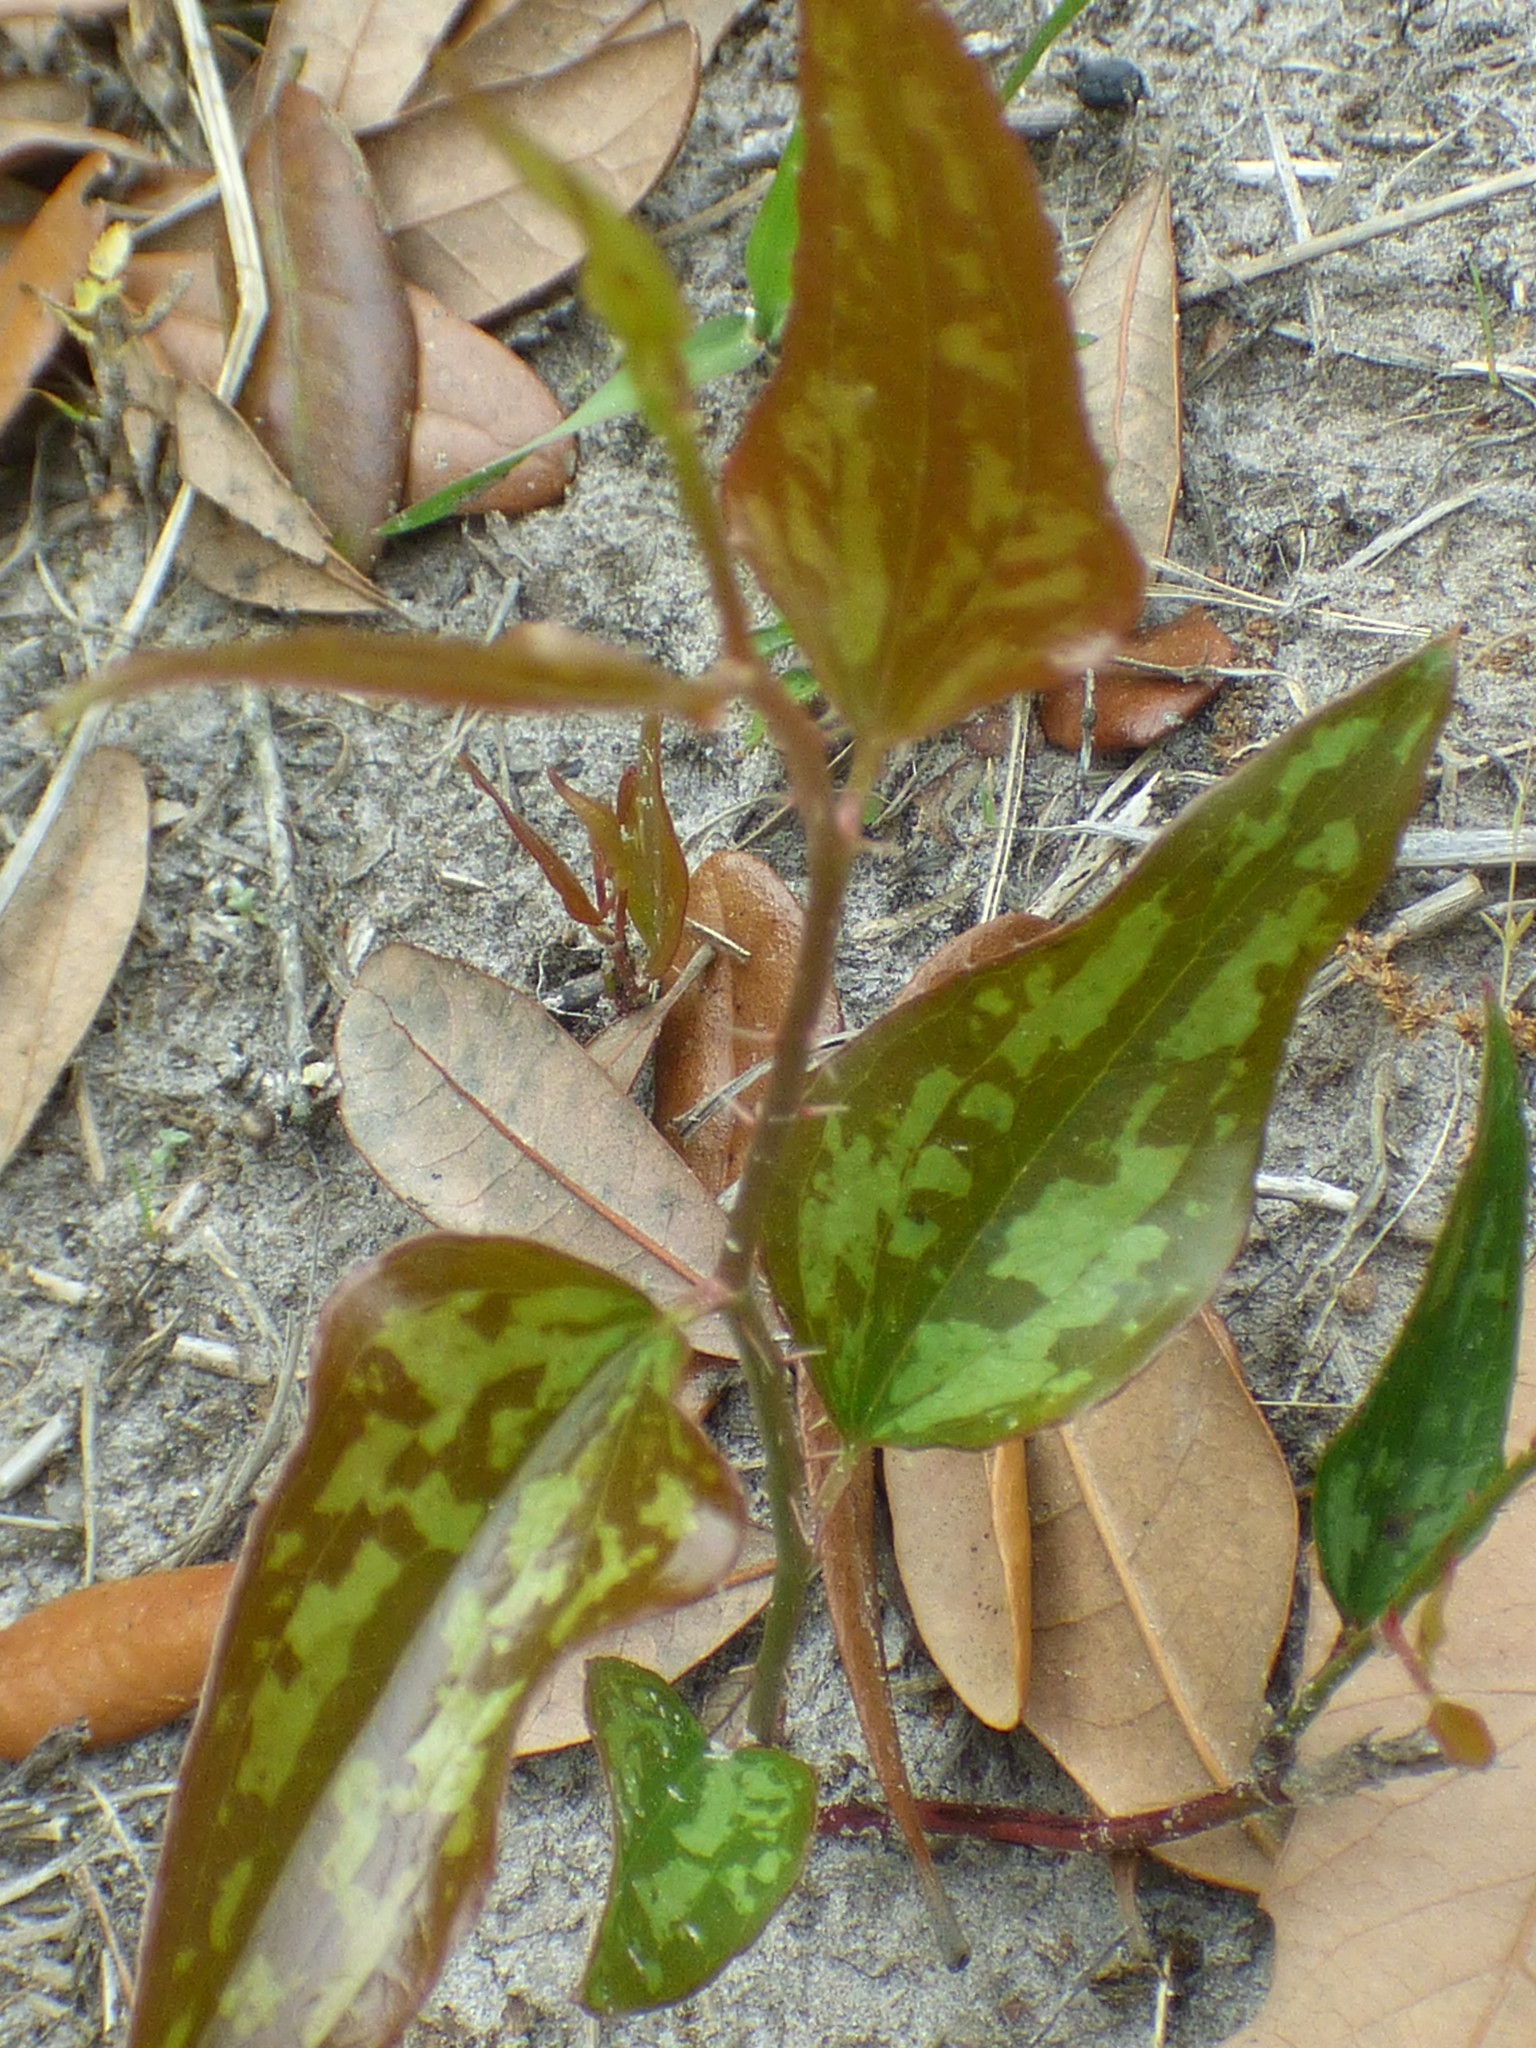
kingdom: Plantae
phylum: Tracheophyta
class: Liliopsida
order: Liliales
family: Smilacaceae
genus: Smilax
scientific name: Smilax bona-nox
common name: Catbrier
